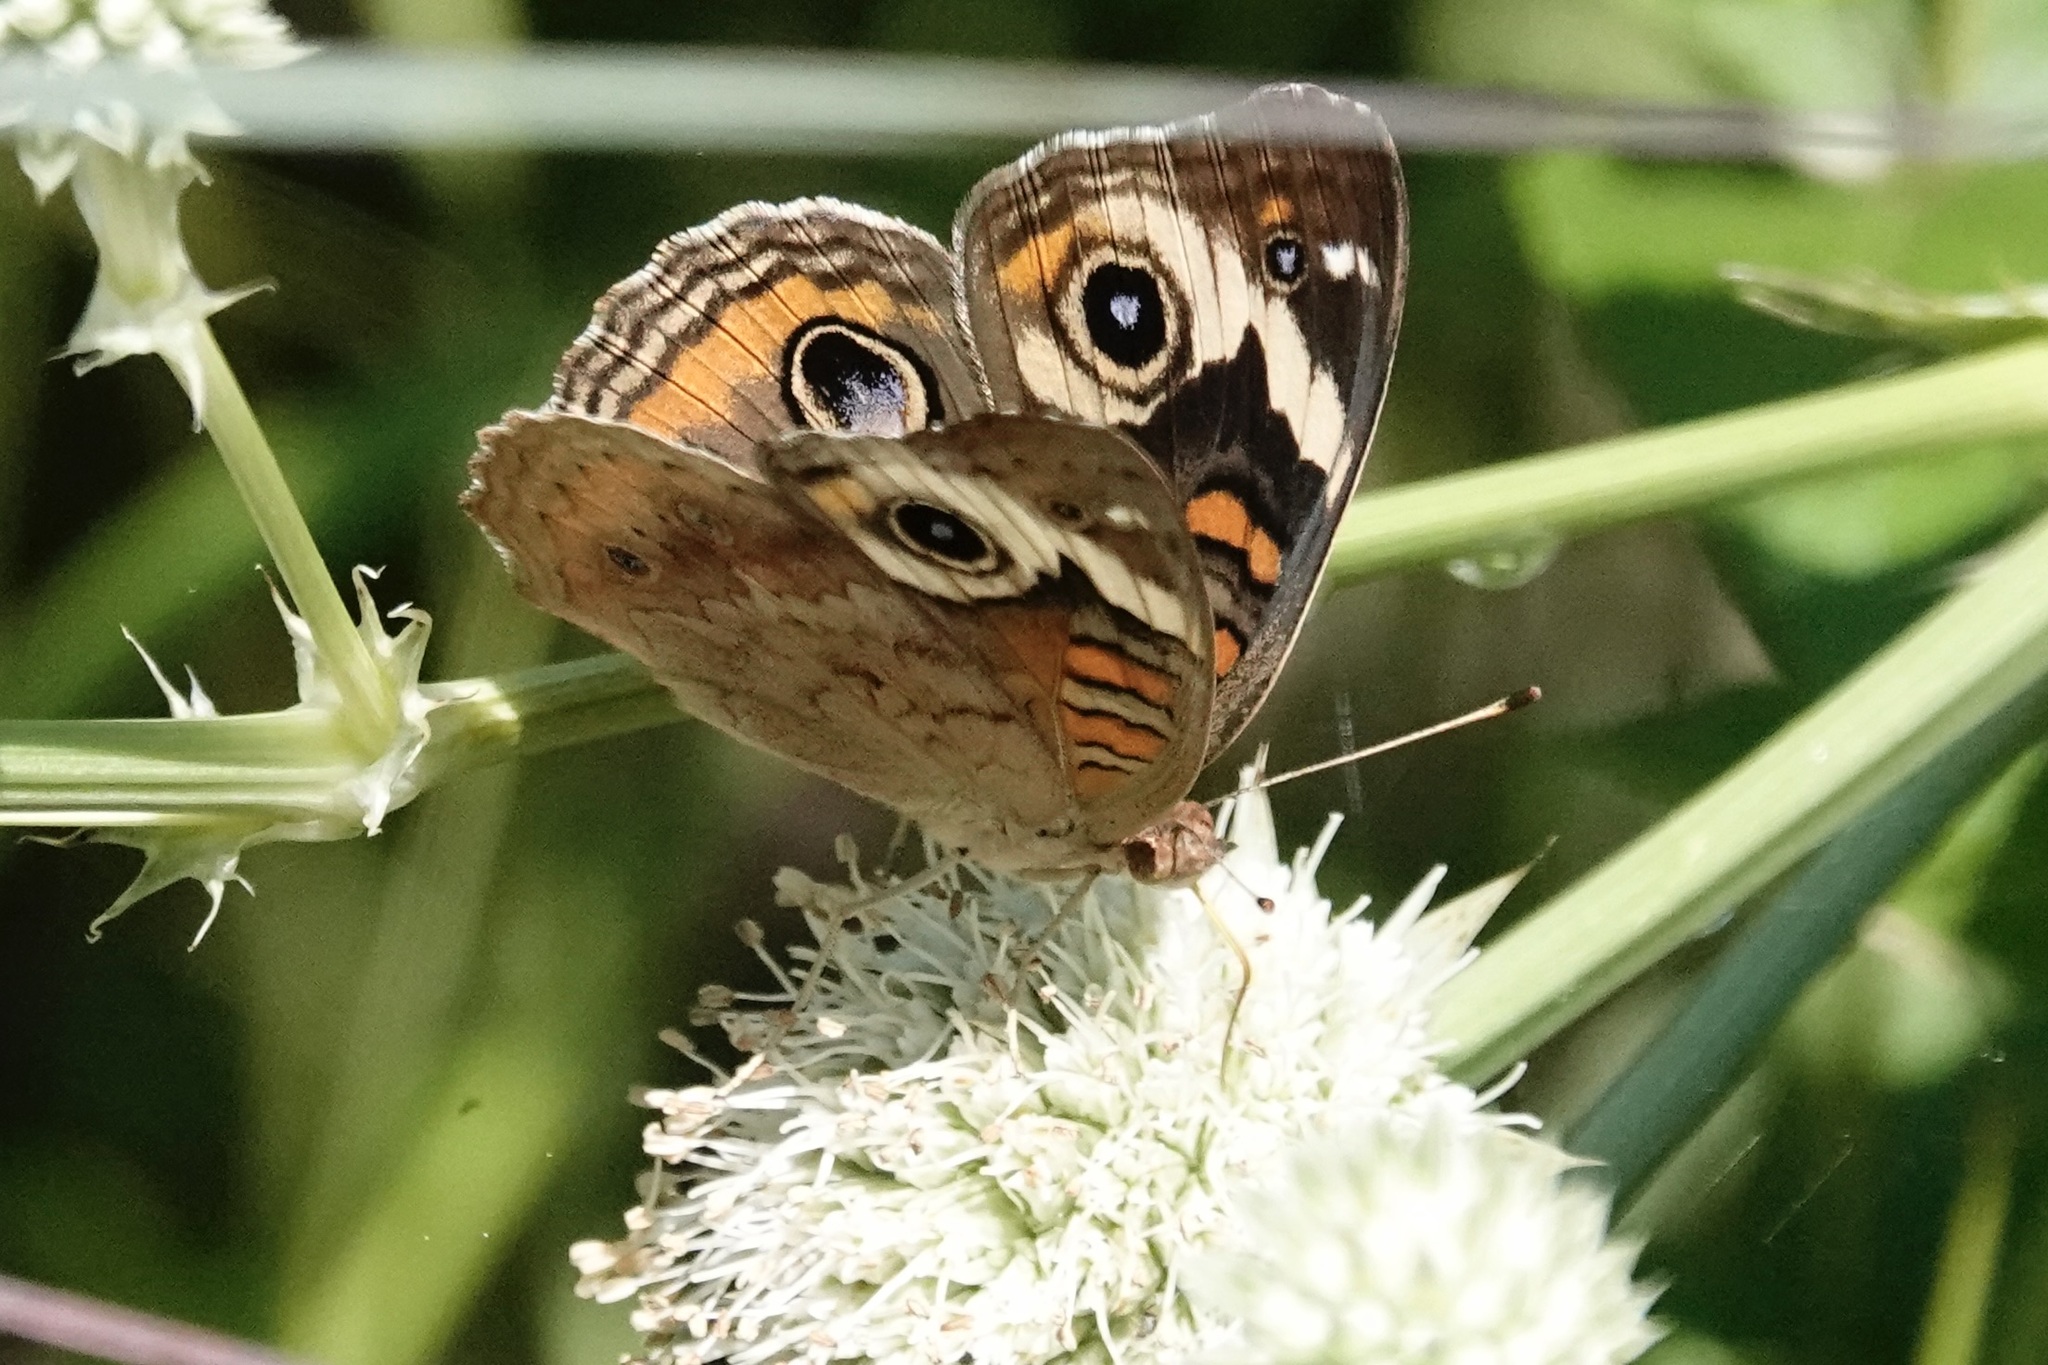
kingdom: Animalia
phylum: Arthropoda
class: Insecta
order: Lepidoptera
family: Nymphalidae
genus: Junonia
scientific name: Junonia coenia
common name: Common buckeye
